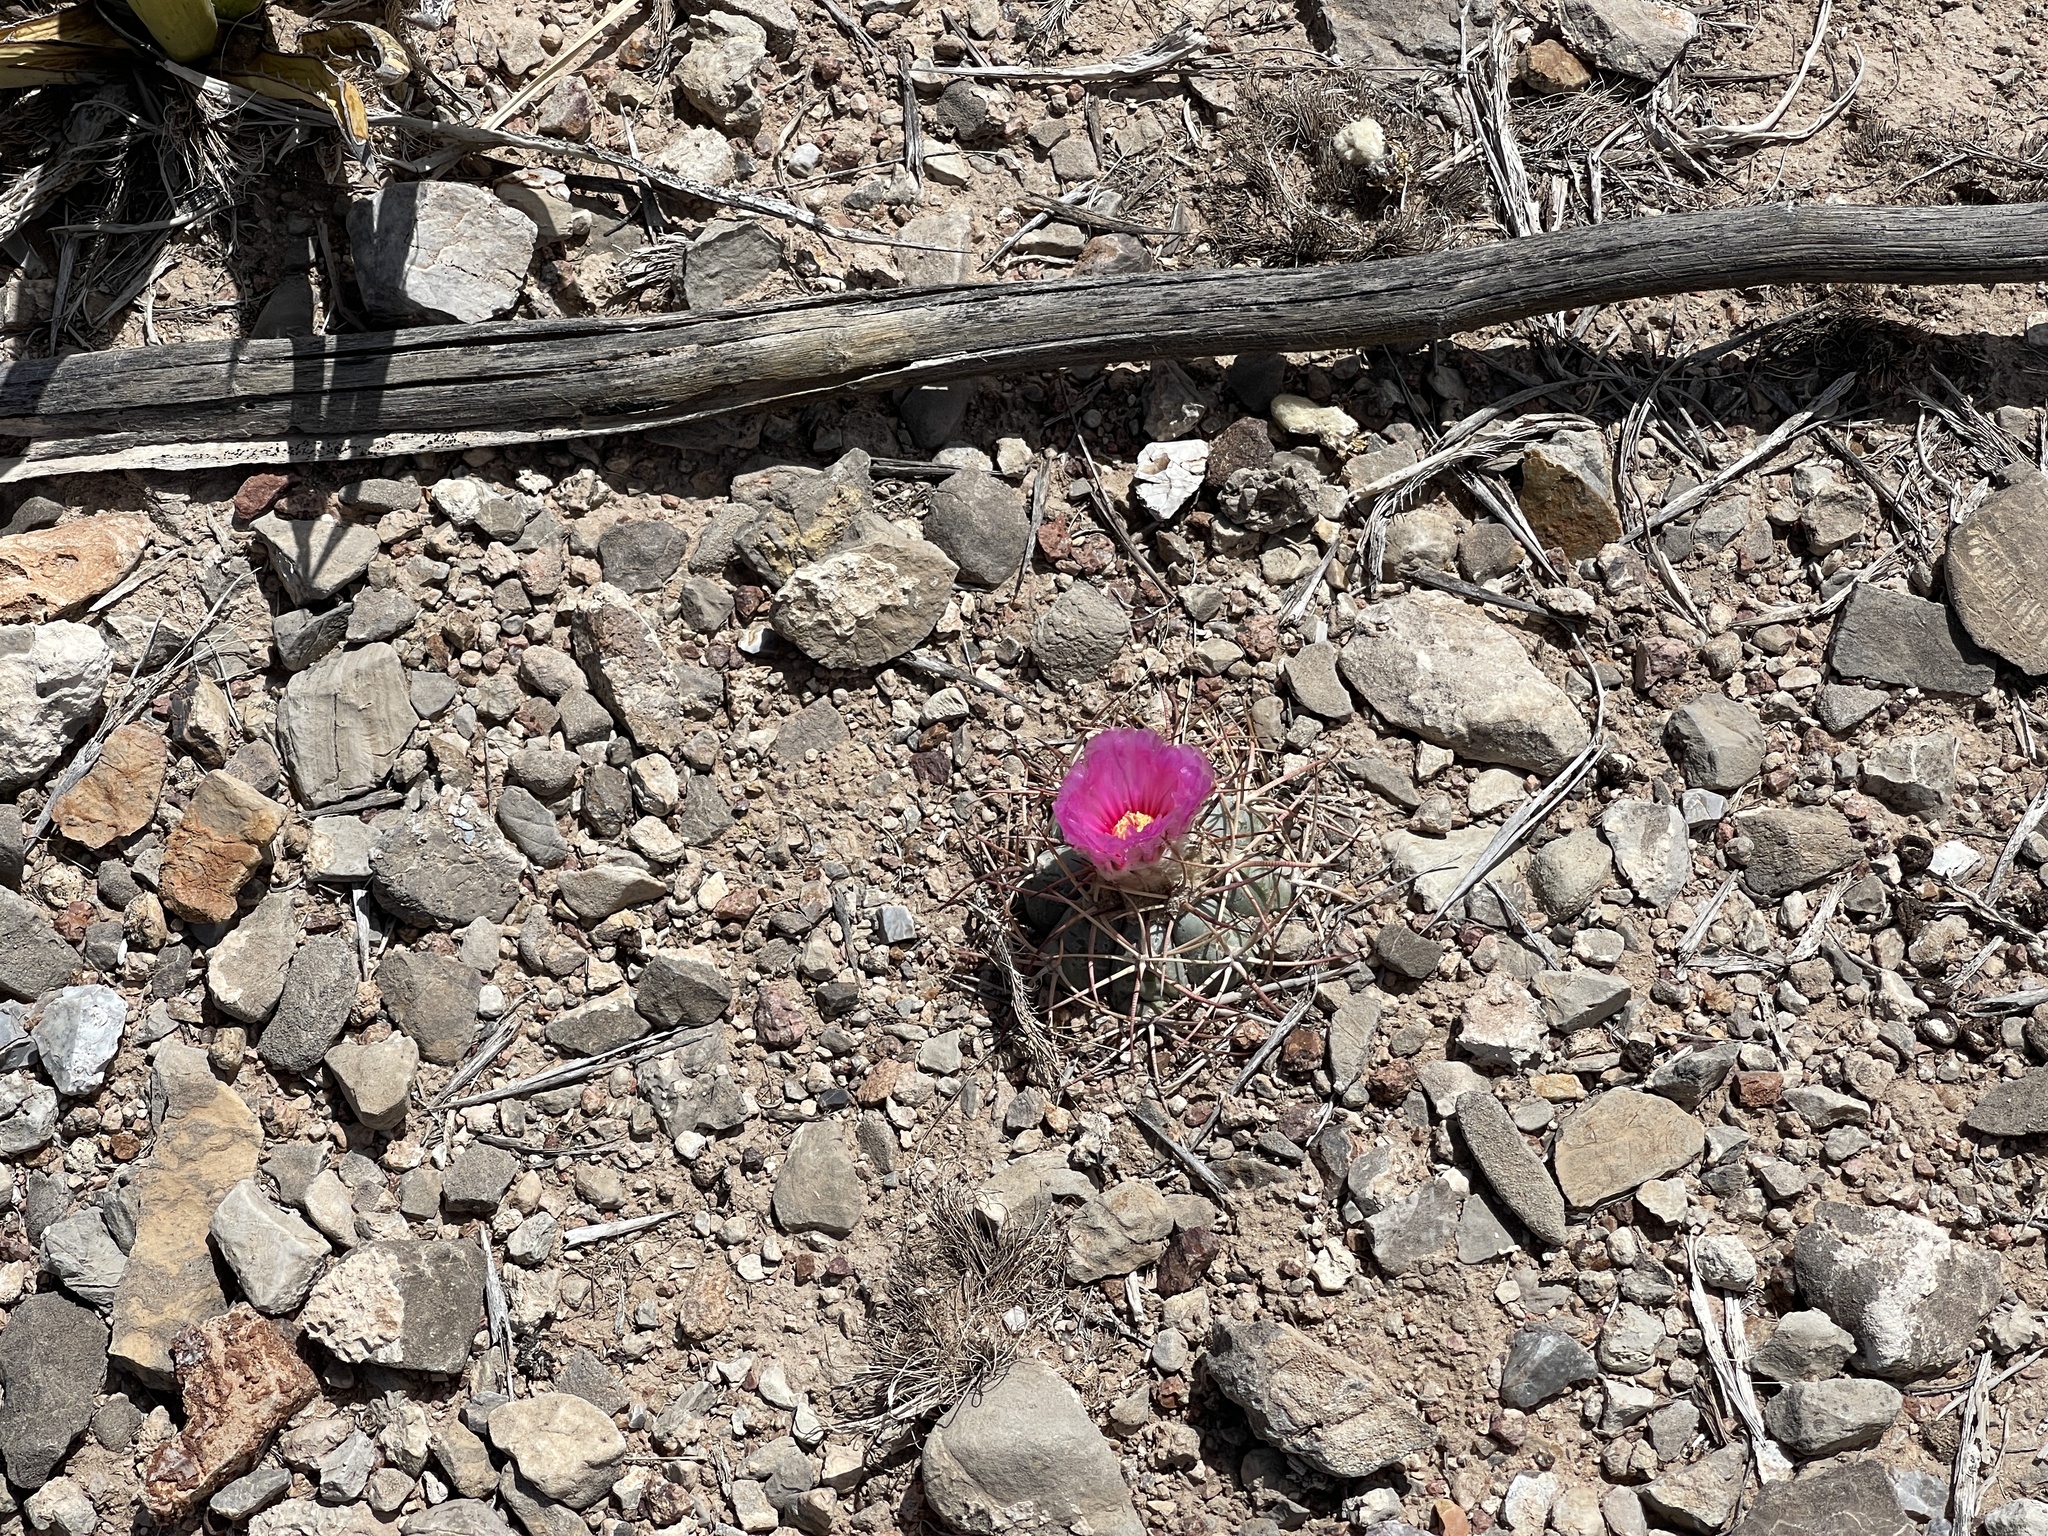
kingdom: Plantae
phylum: Tracheophyta
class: Magnoliopsida
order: Caryophyllales
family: Cactaceae
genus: Echinocactus
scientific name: Echinocactus horizonthalonius
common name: Devilshead
